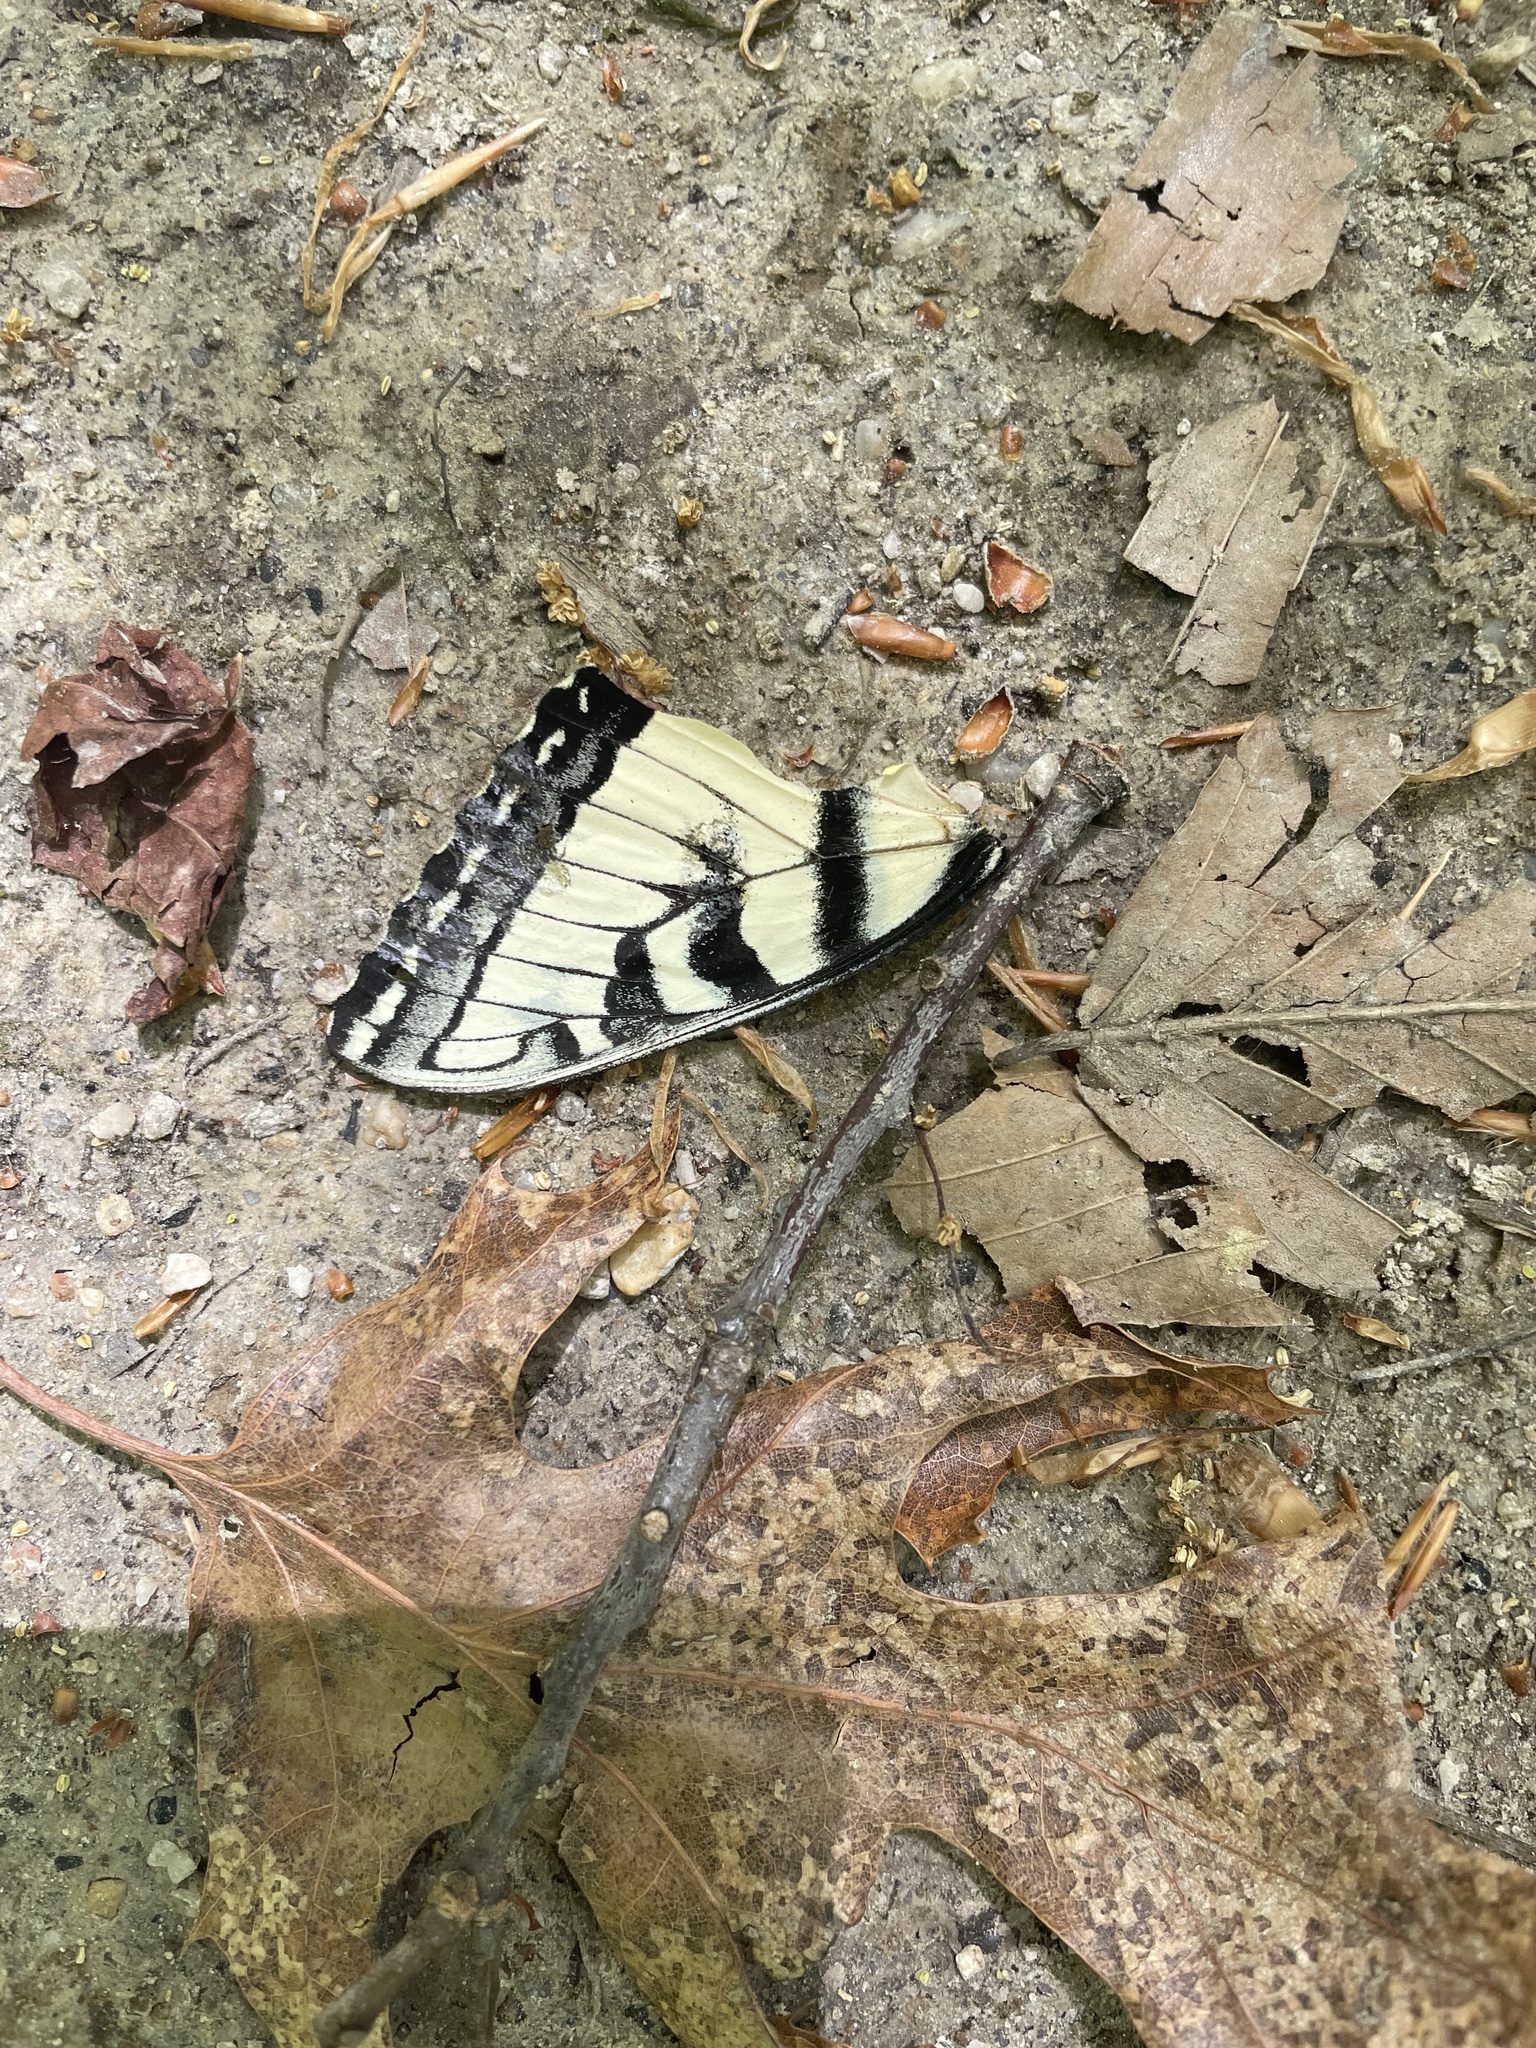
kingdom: Animalia
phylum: Arthropoda
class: Insecta
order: Lepidoptera
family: Papilionidae
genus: Papilio
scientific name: Papilio glaucus
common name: Tiger swallowtail
